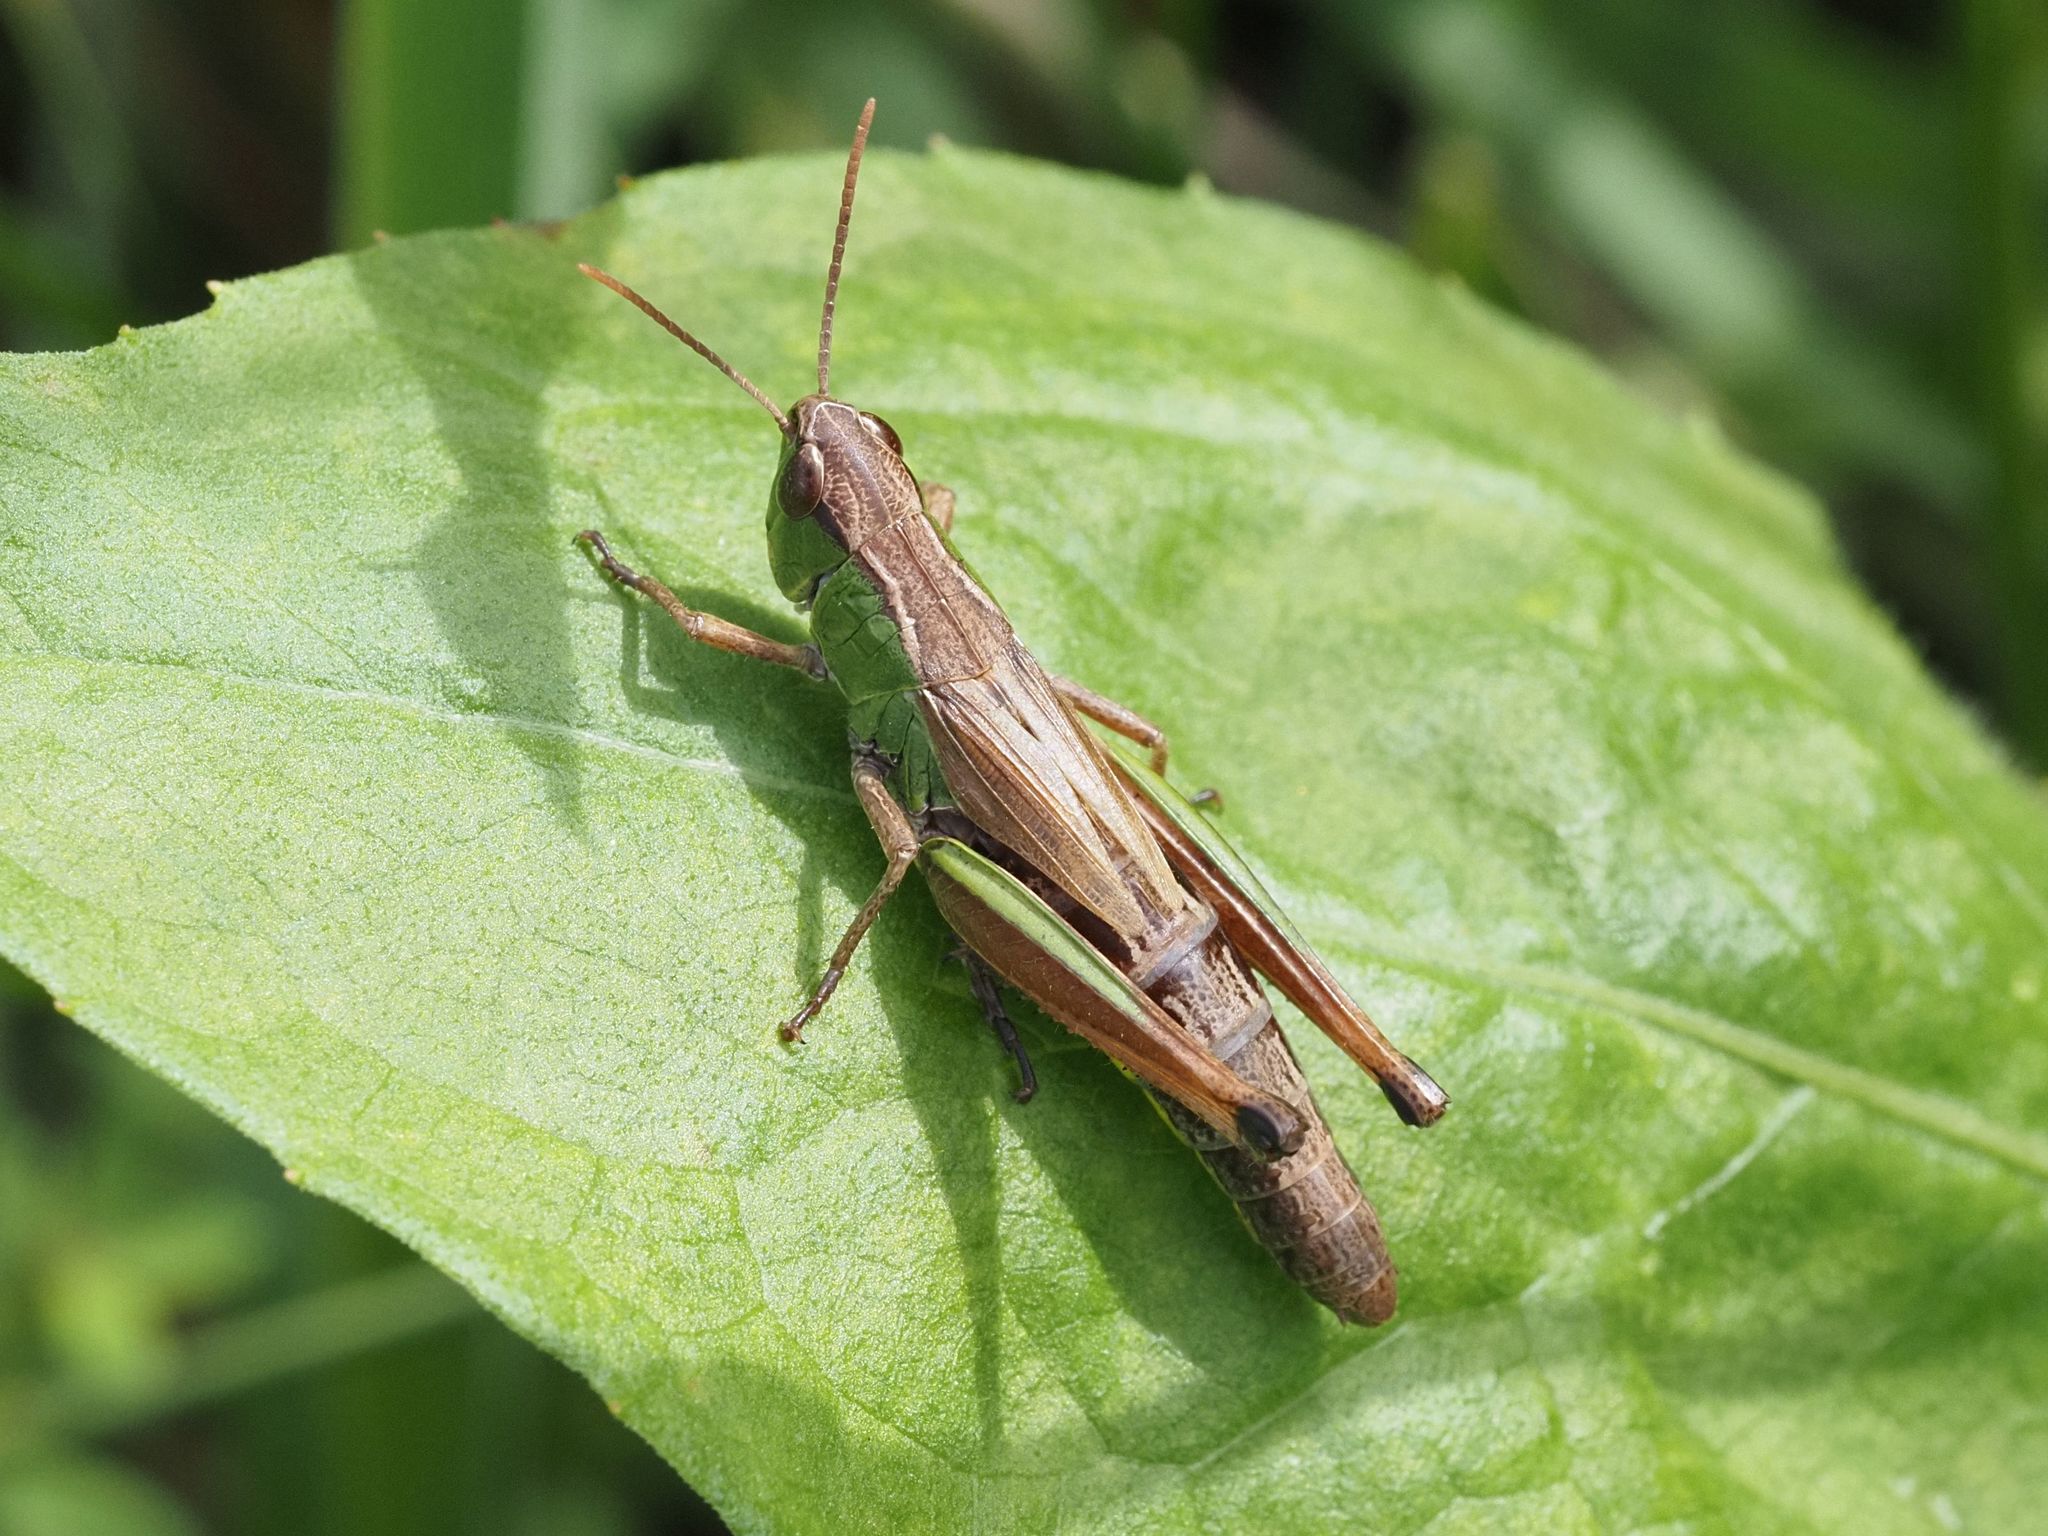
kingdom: Animalia
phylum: Arthropoda
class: Insecta
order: Orthoptera
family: Acrididae
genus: Pseudochorthippus
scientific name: Pseudochorthippus parallelus
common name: Meadow grasshopper
